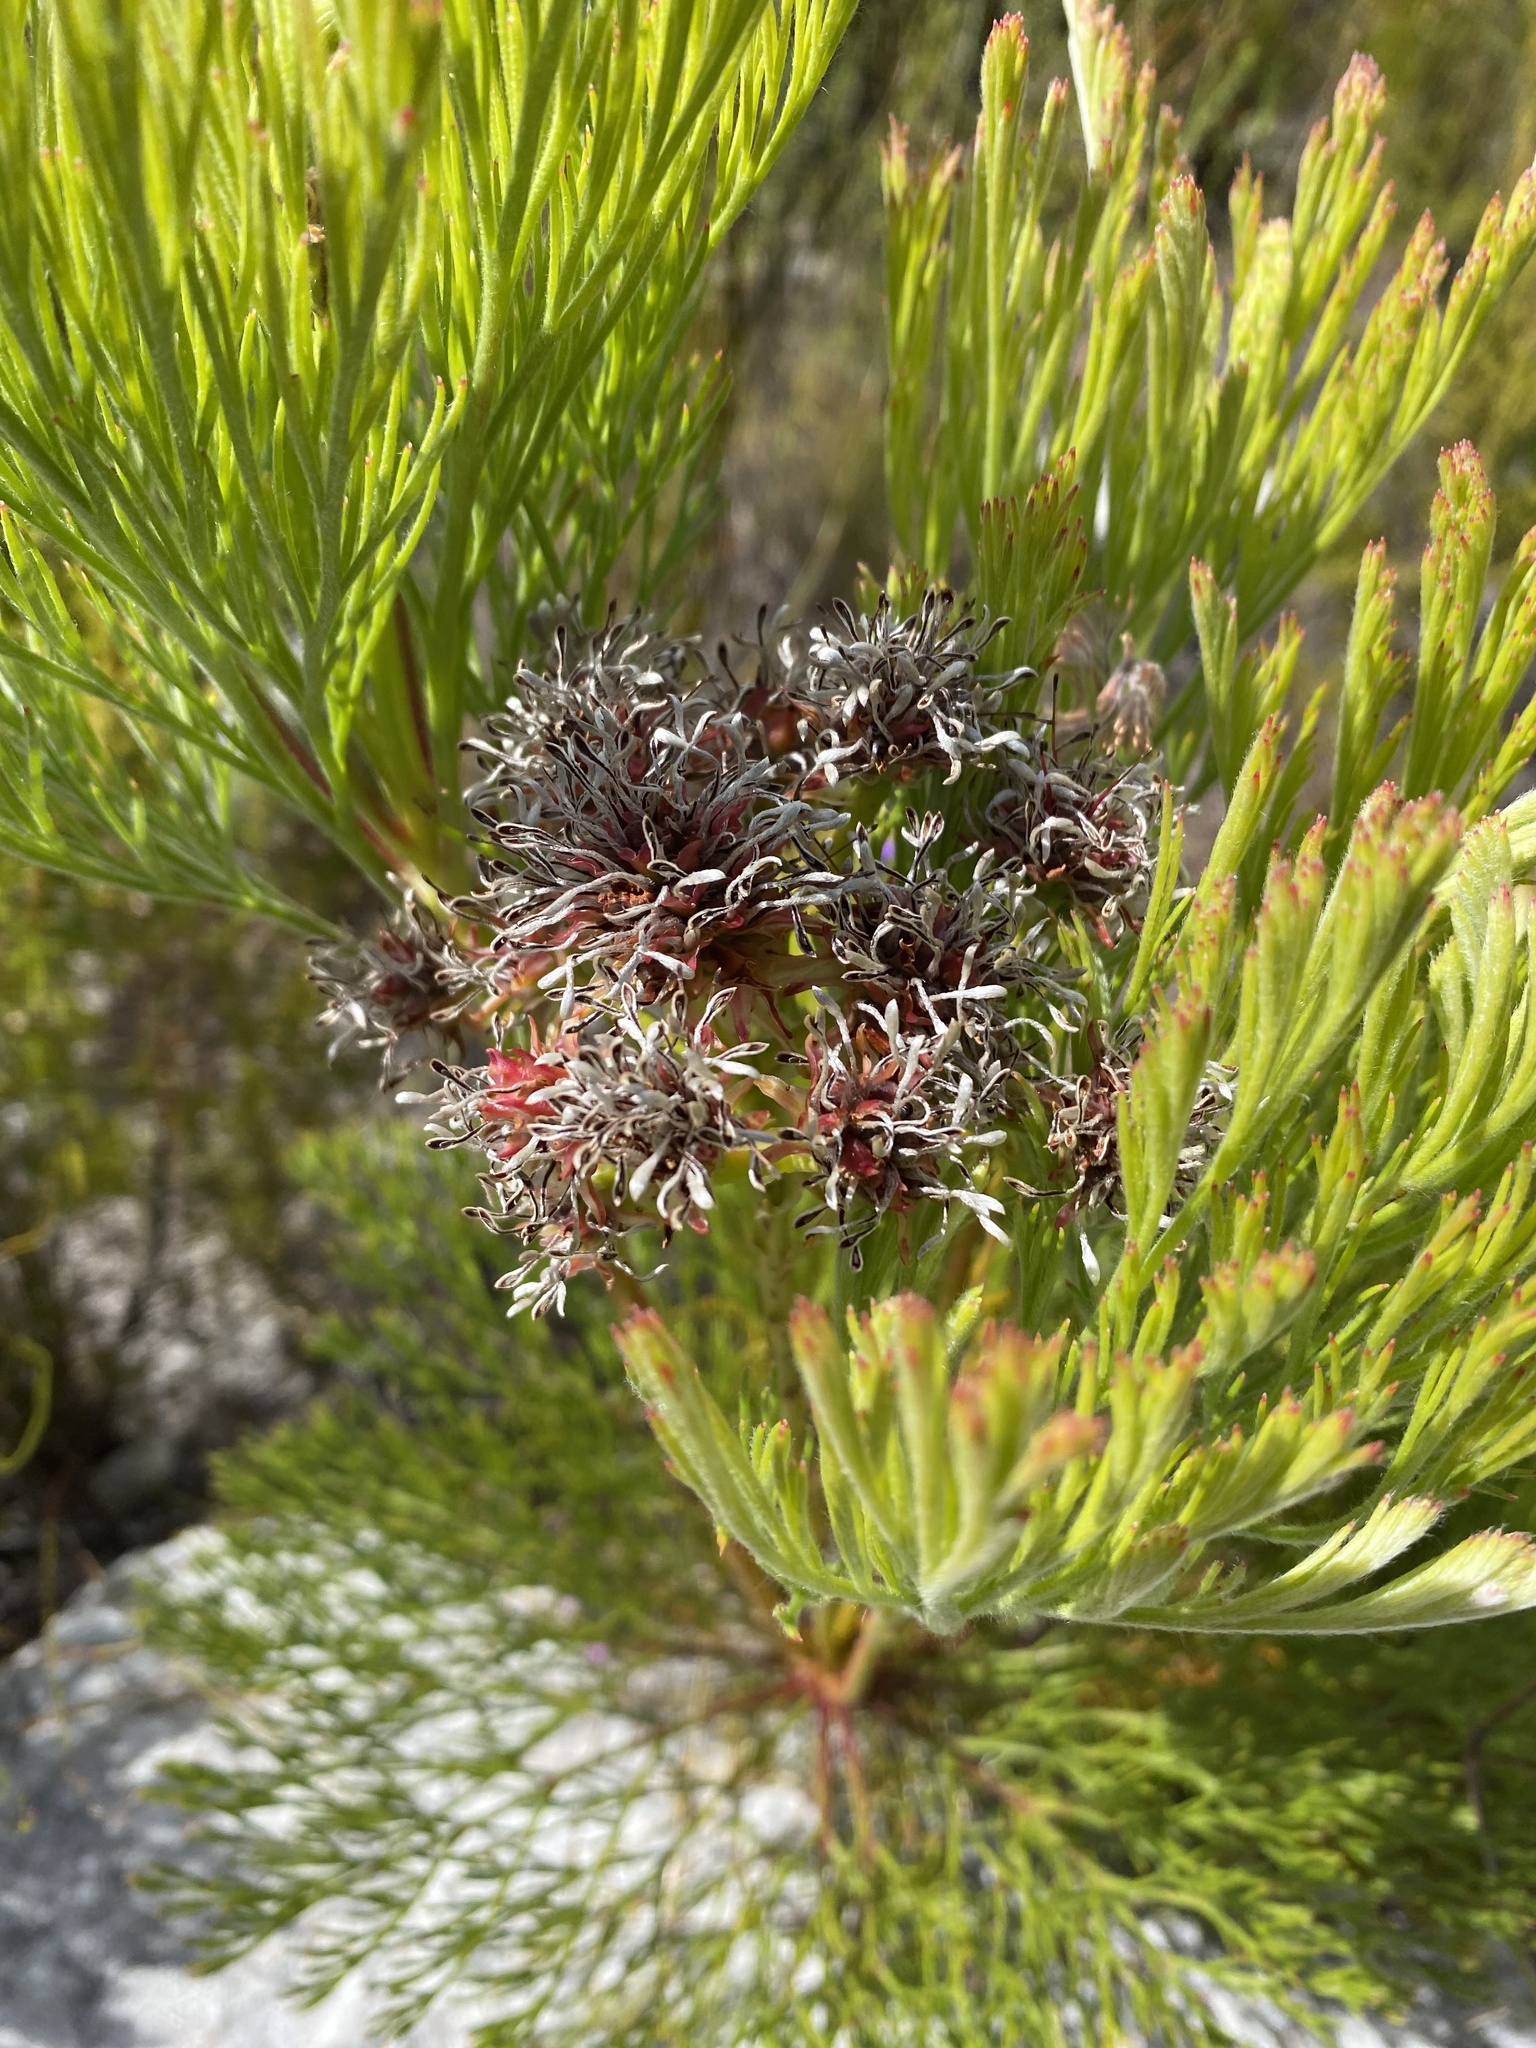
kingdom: Plantae
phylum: Tracheophyta
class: Magnoliopsida
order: Proteales
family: Proteaceae
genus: Serruria
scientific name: Serruria elongata
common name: Long-stalk spiderhead
